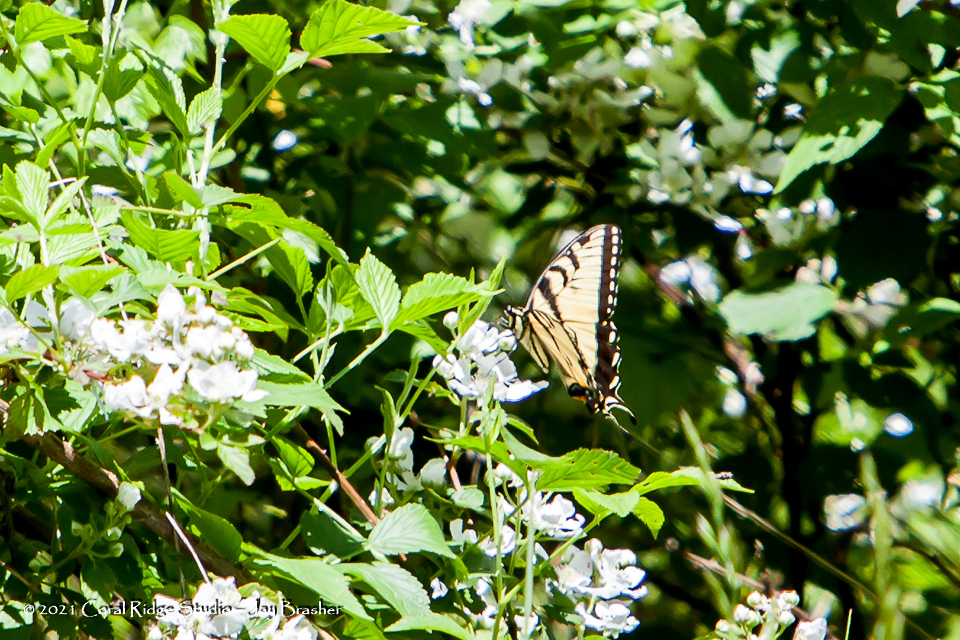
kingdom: Animalia
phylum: Arthropoda
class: Insecta
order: Lepidoptera
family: Papilionidae
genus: Papilio
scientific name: Papilio glaucus
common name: Tiger swallowtail
